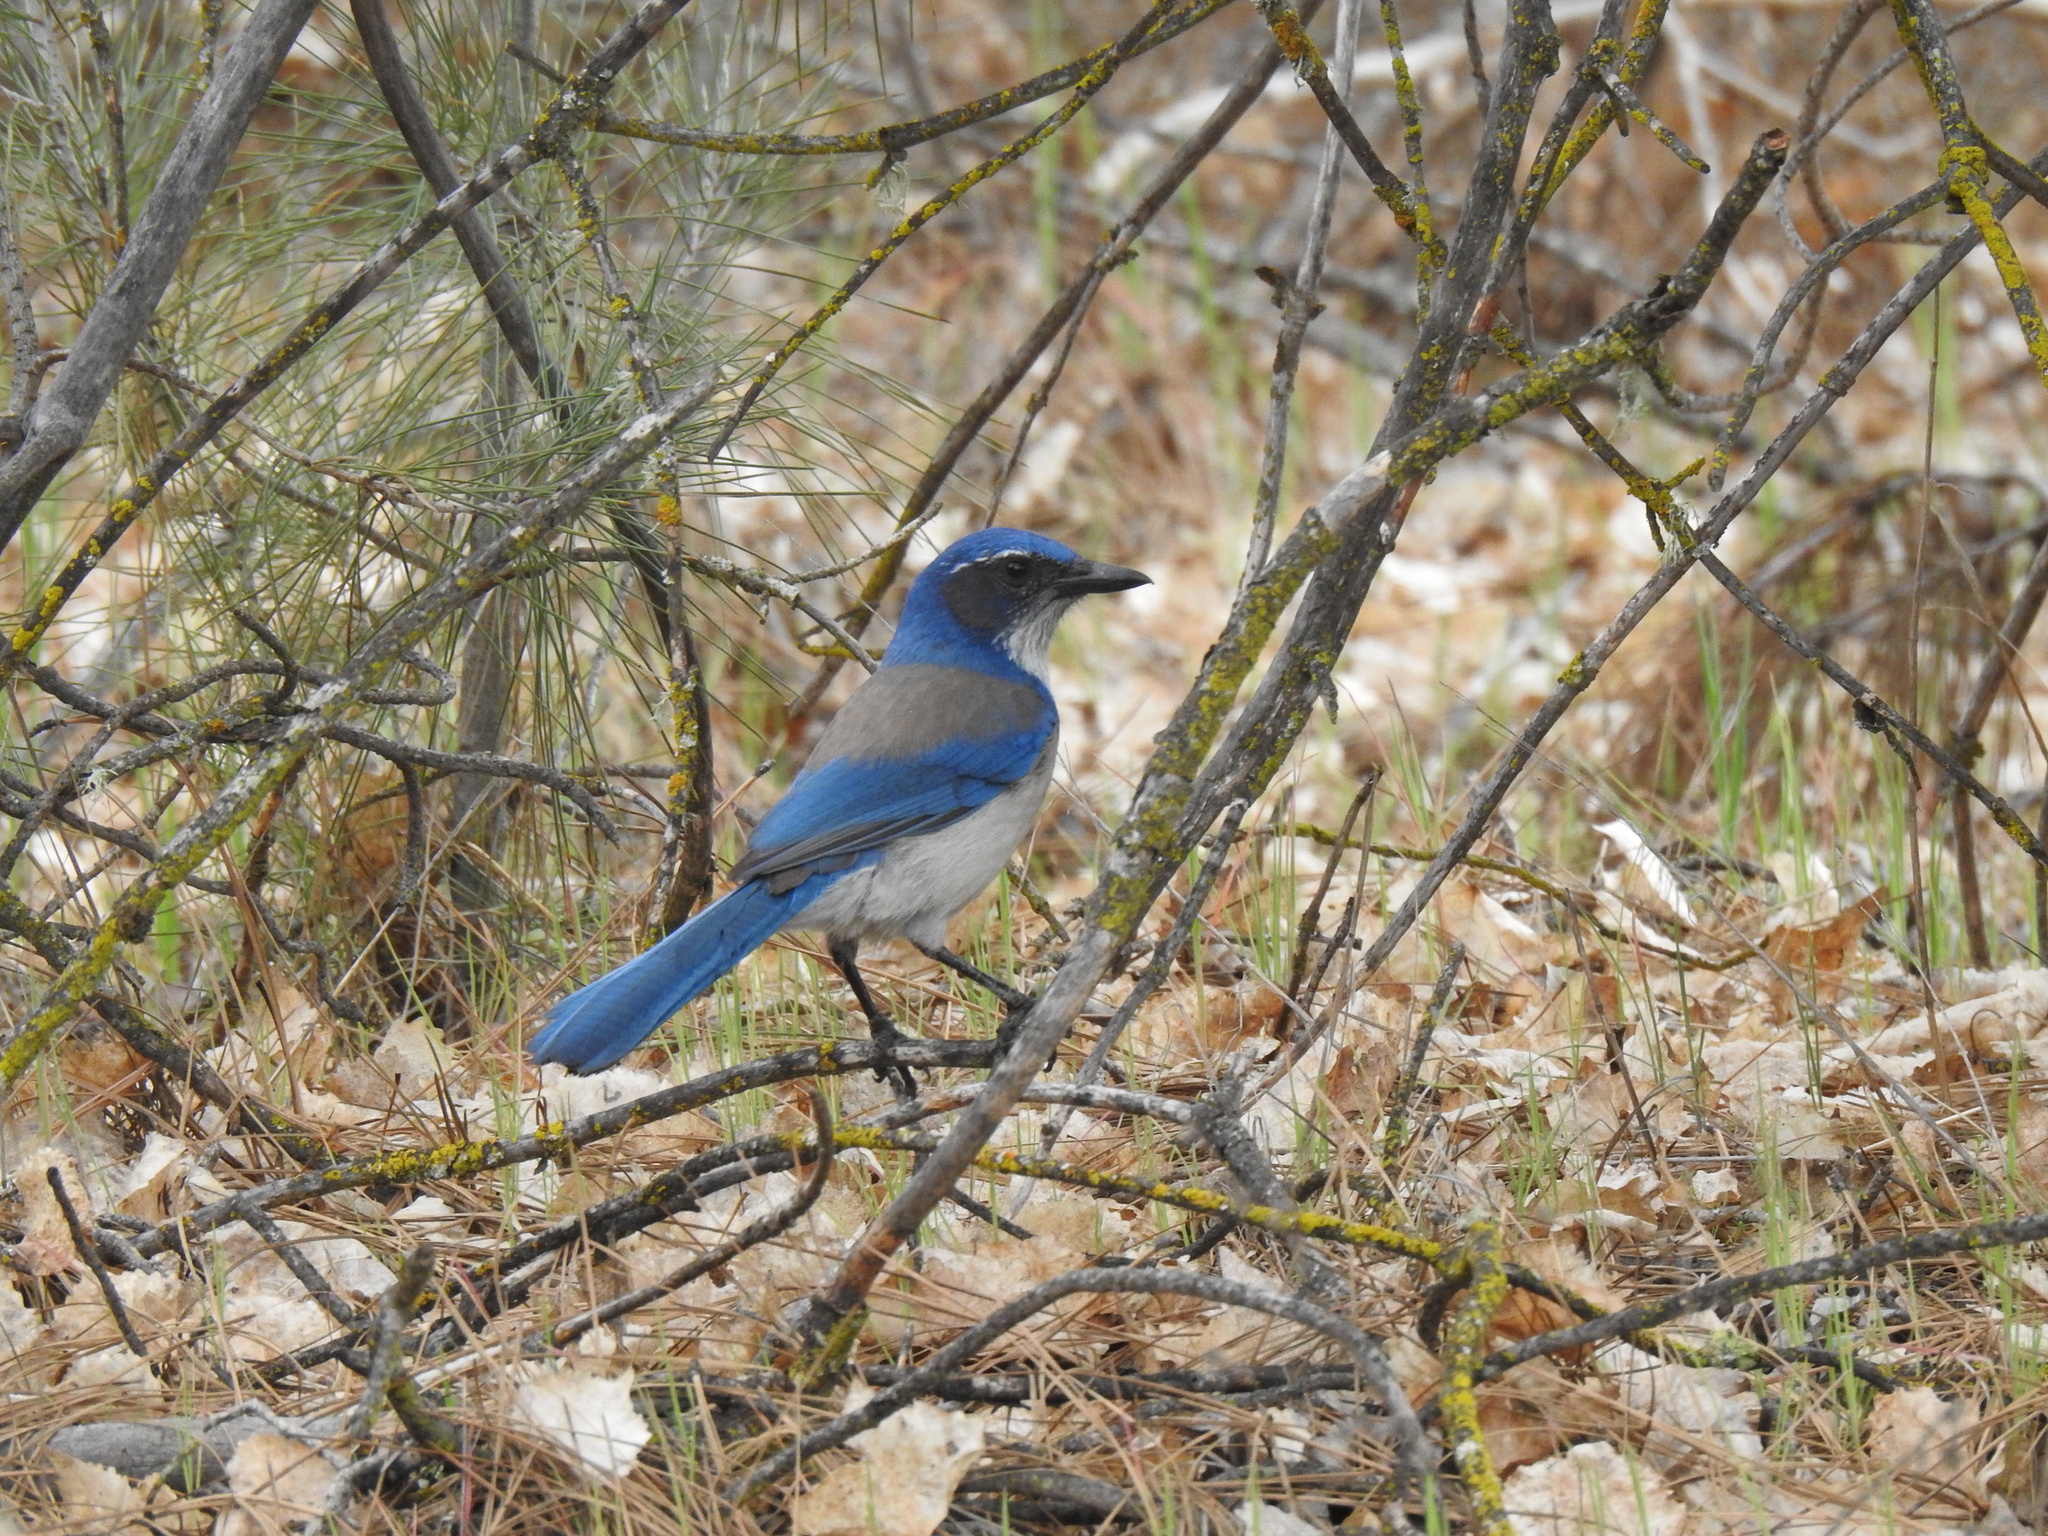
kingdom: Animalia
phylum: Chordata
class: Aves
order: Passeriformes
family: Corvidae
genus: Aphelocoma
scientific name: Aphelocoma californica
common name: California scrub-jay
